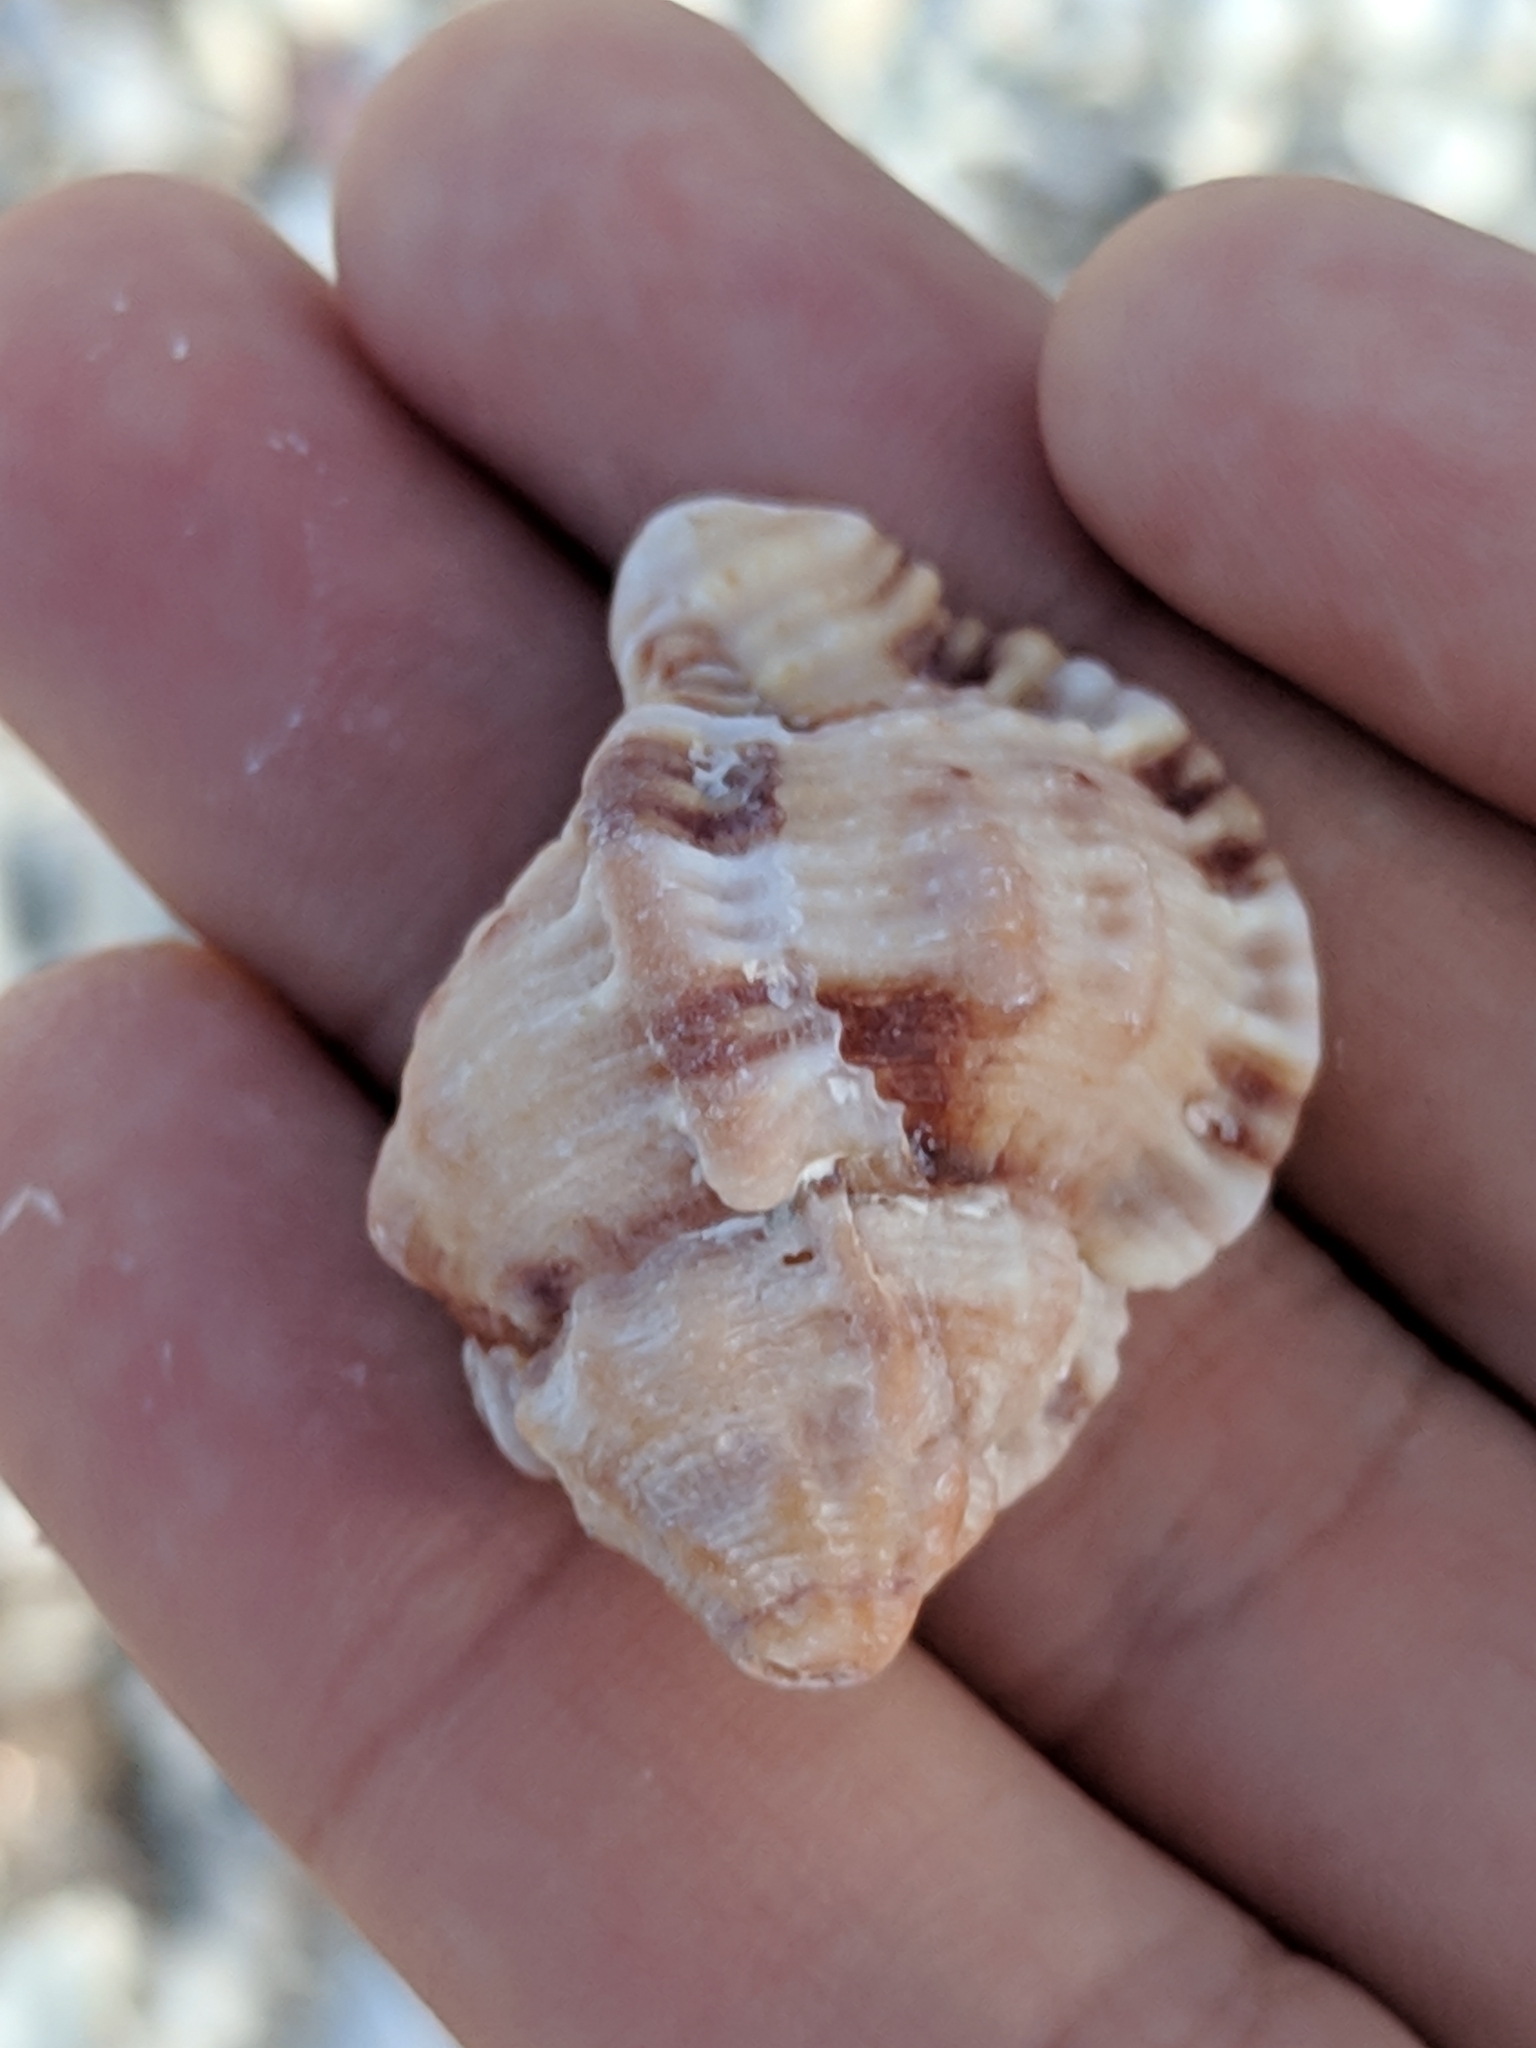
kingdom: Animalia
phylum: Mollusca
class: Gastropoda
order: Neogastropoda
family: Muricidae
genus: Phyllonotus
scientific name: Phyllonotus pomum
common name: Apple murex
